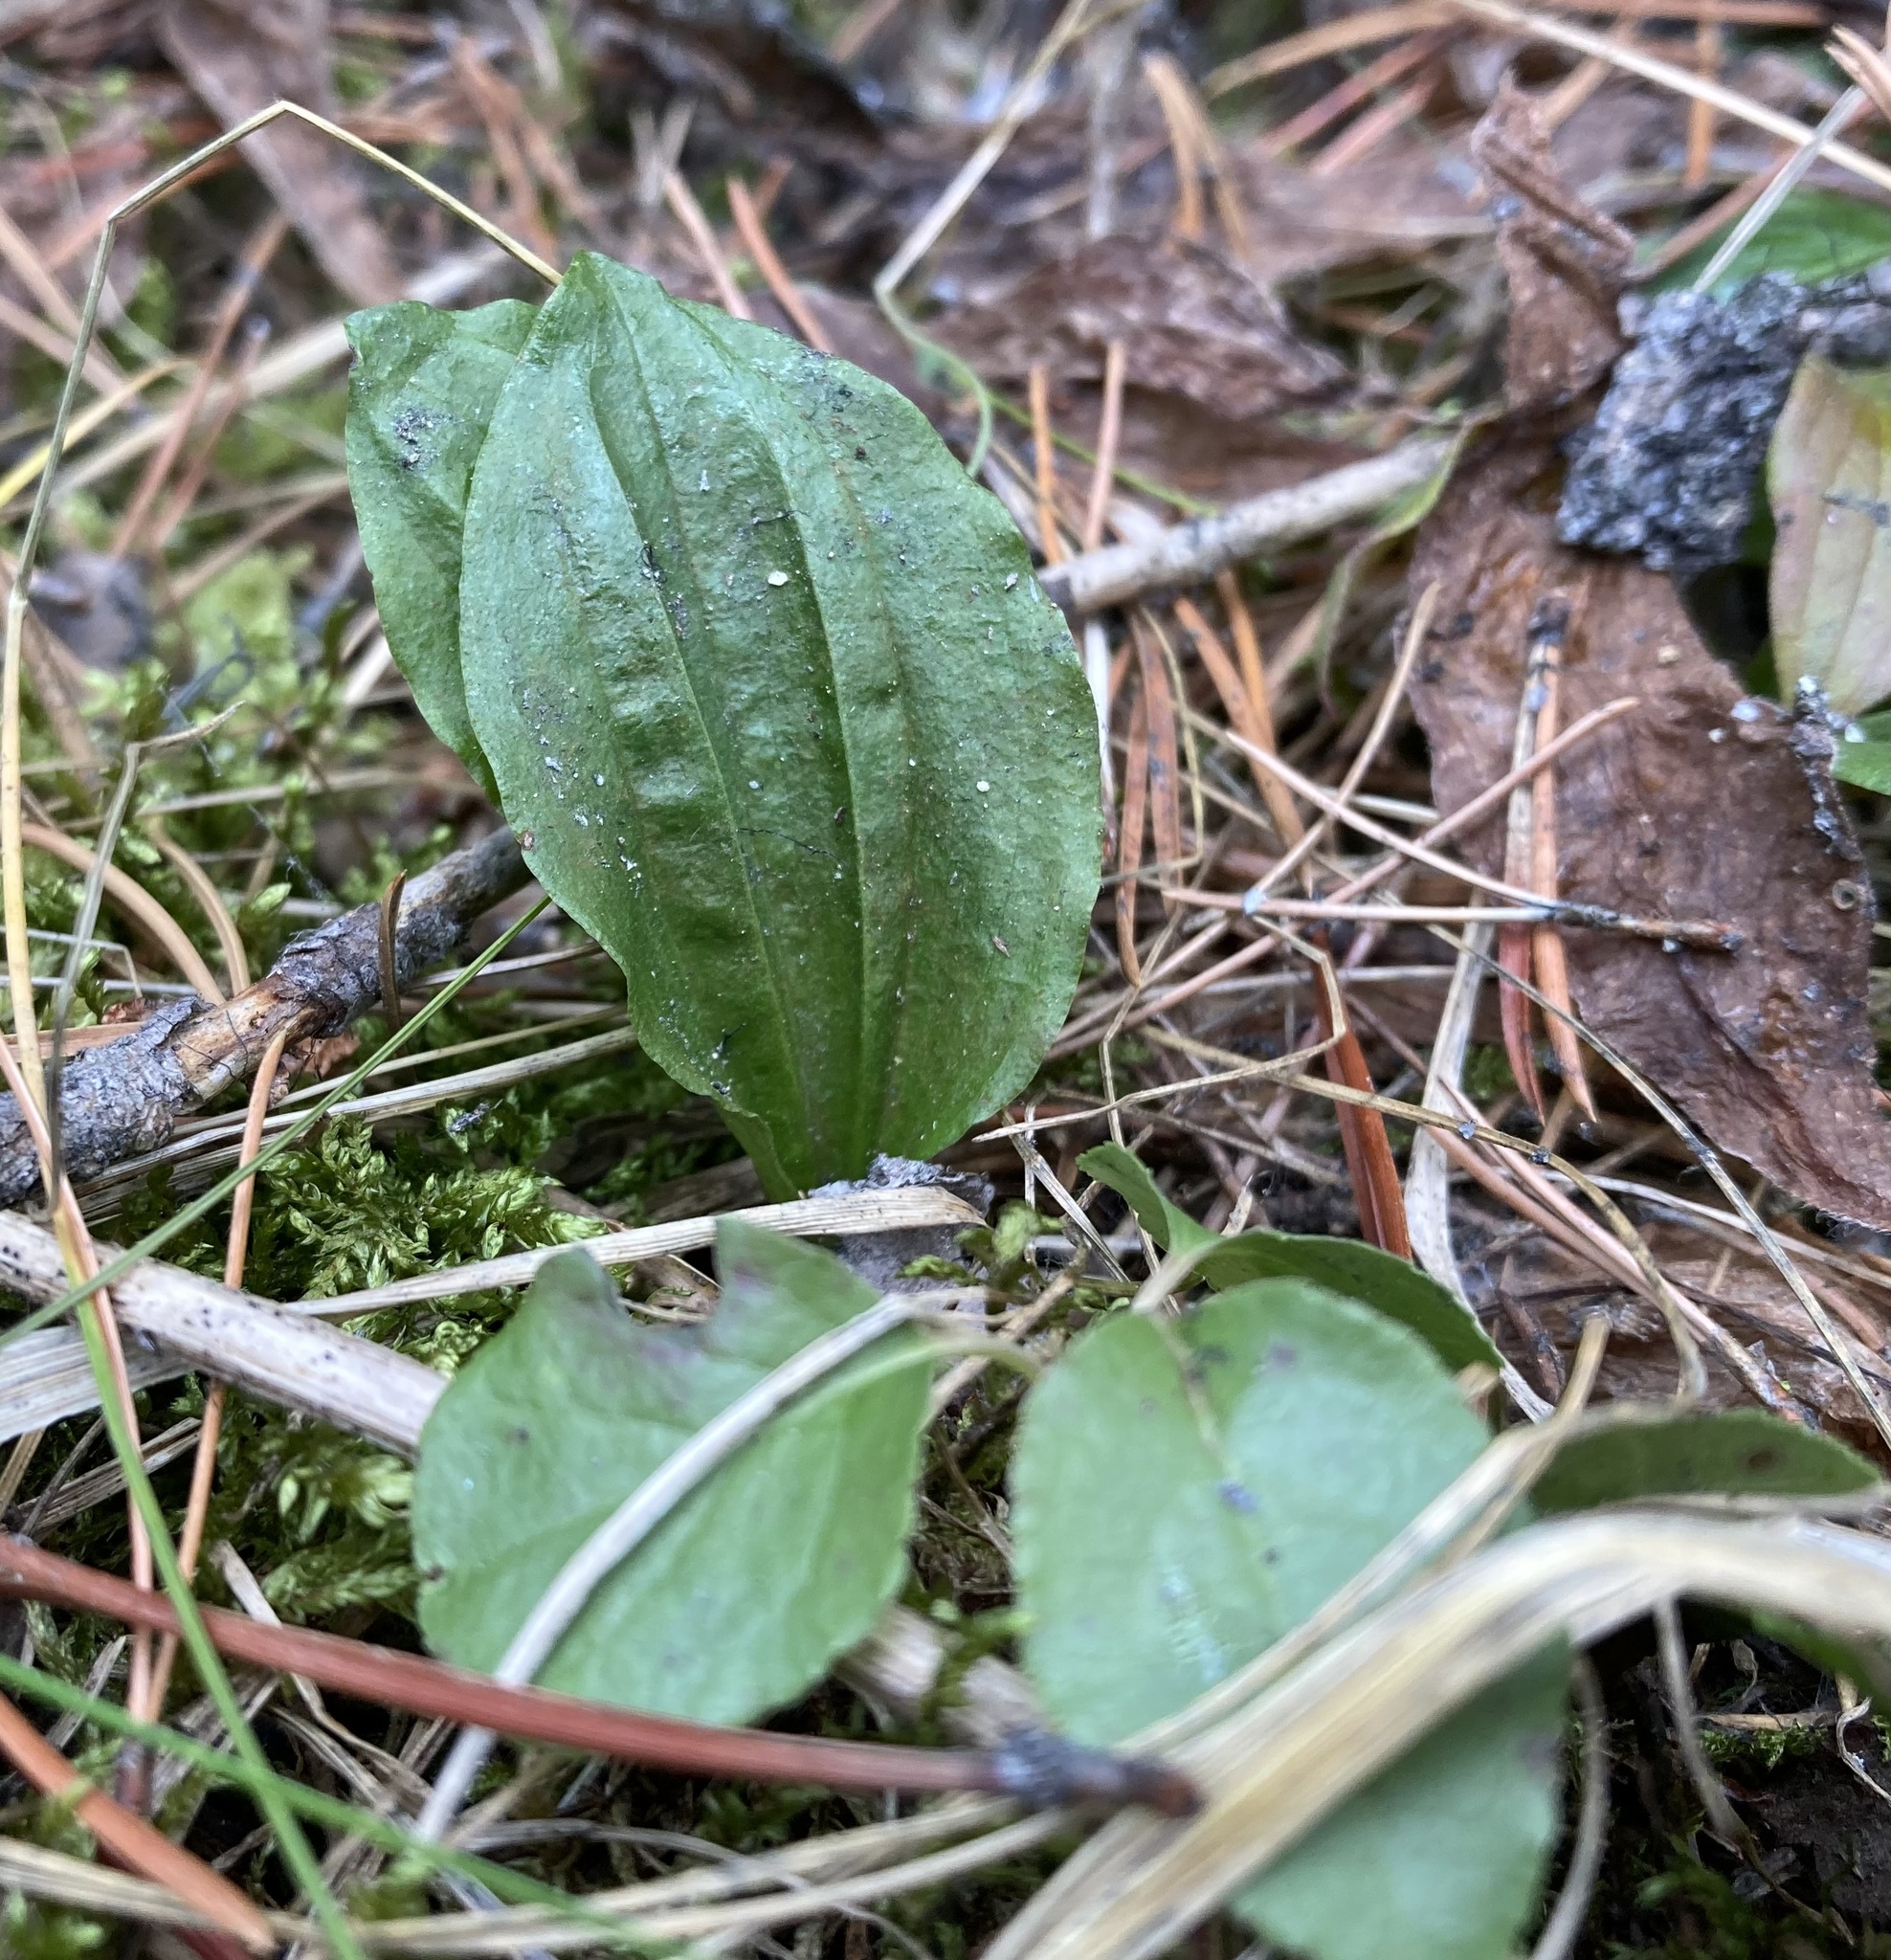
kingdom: Plantae
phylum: Tracheophyta
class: Liliopsida
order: Asparagales
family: Orchidaceae
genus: Calypso
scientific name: Calypso bulbosa
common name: Calypso
